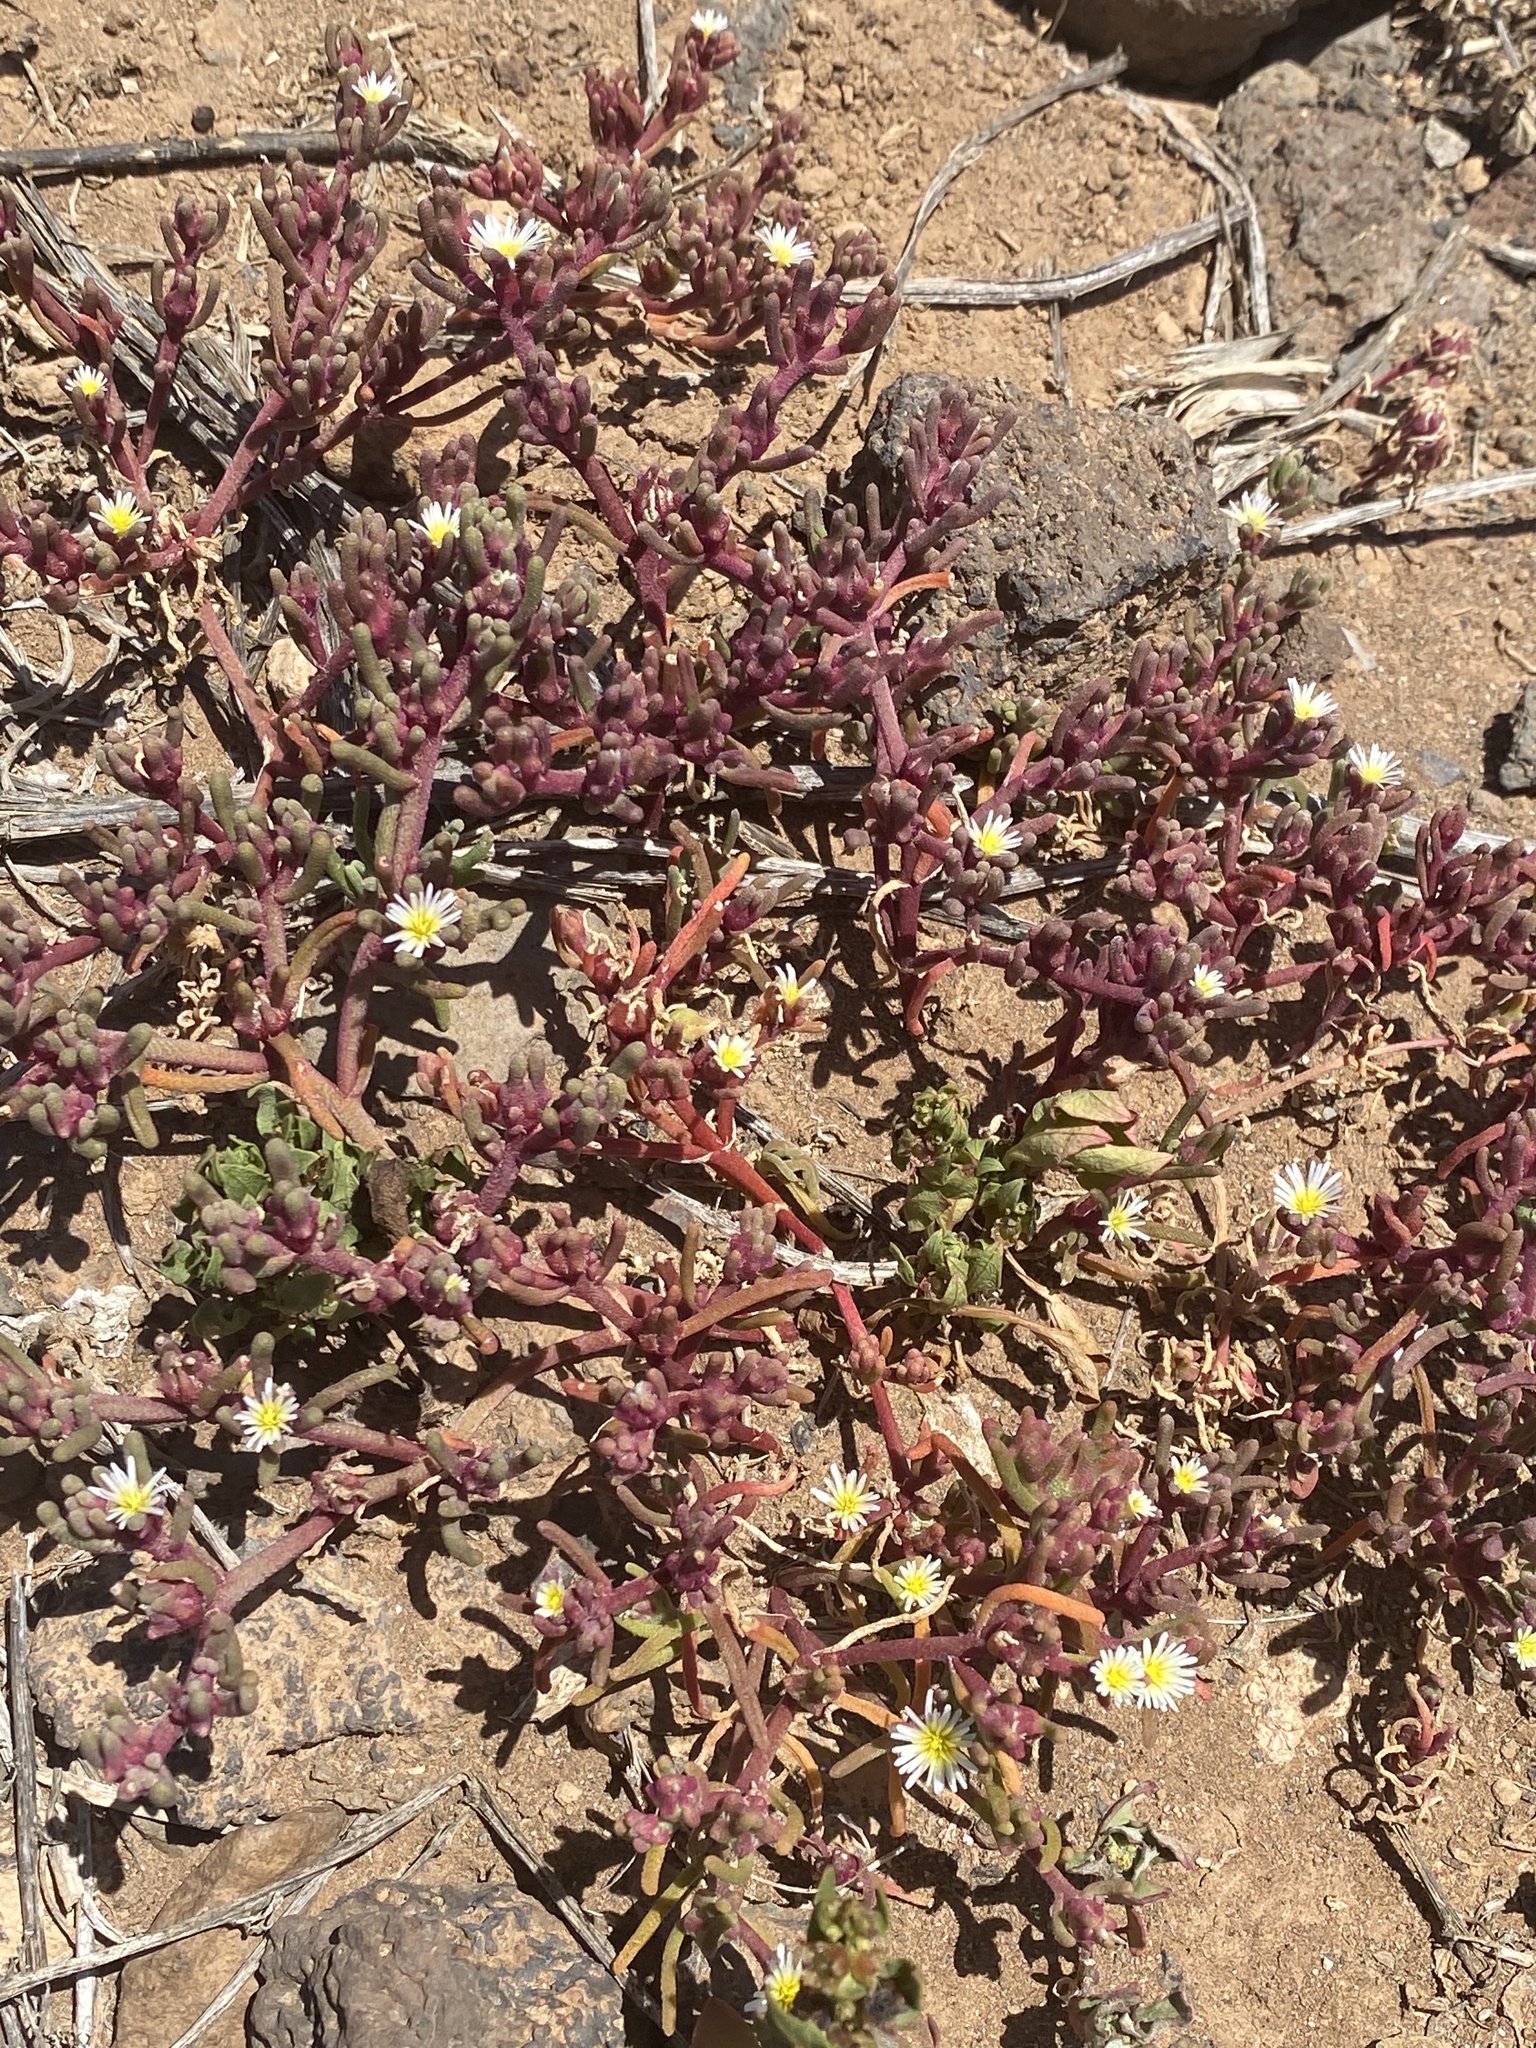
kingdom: Plantae
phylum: Tracheophyta
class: Magnoliopsida
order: Caryophyllales
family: Aizoaceae
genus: Mesembryanthemum
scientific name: Mesembryanthemum nodiflorum
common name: Slenderleaf iceplant
